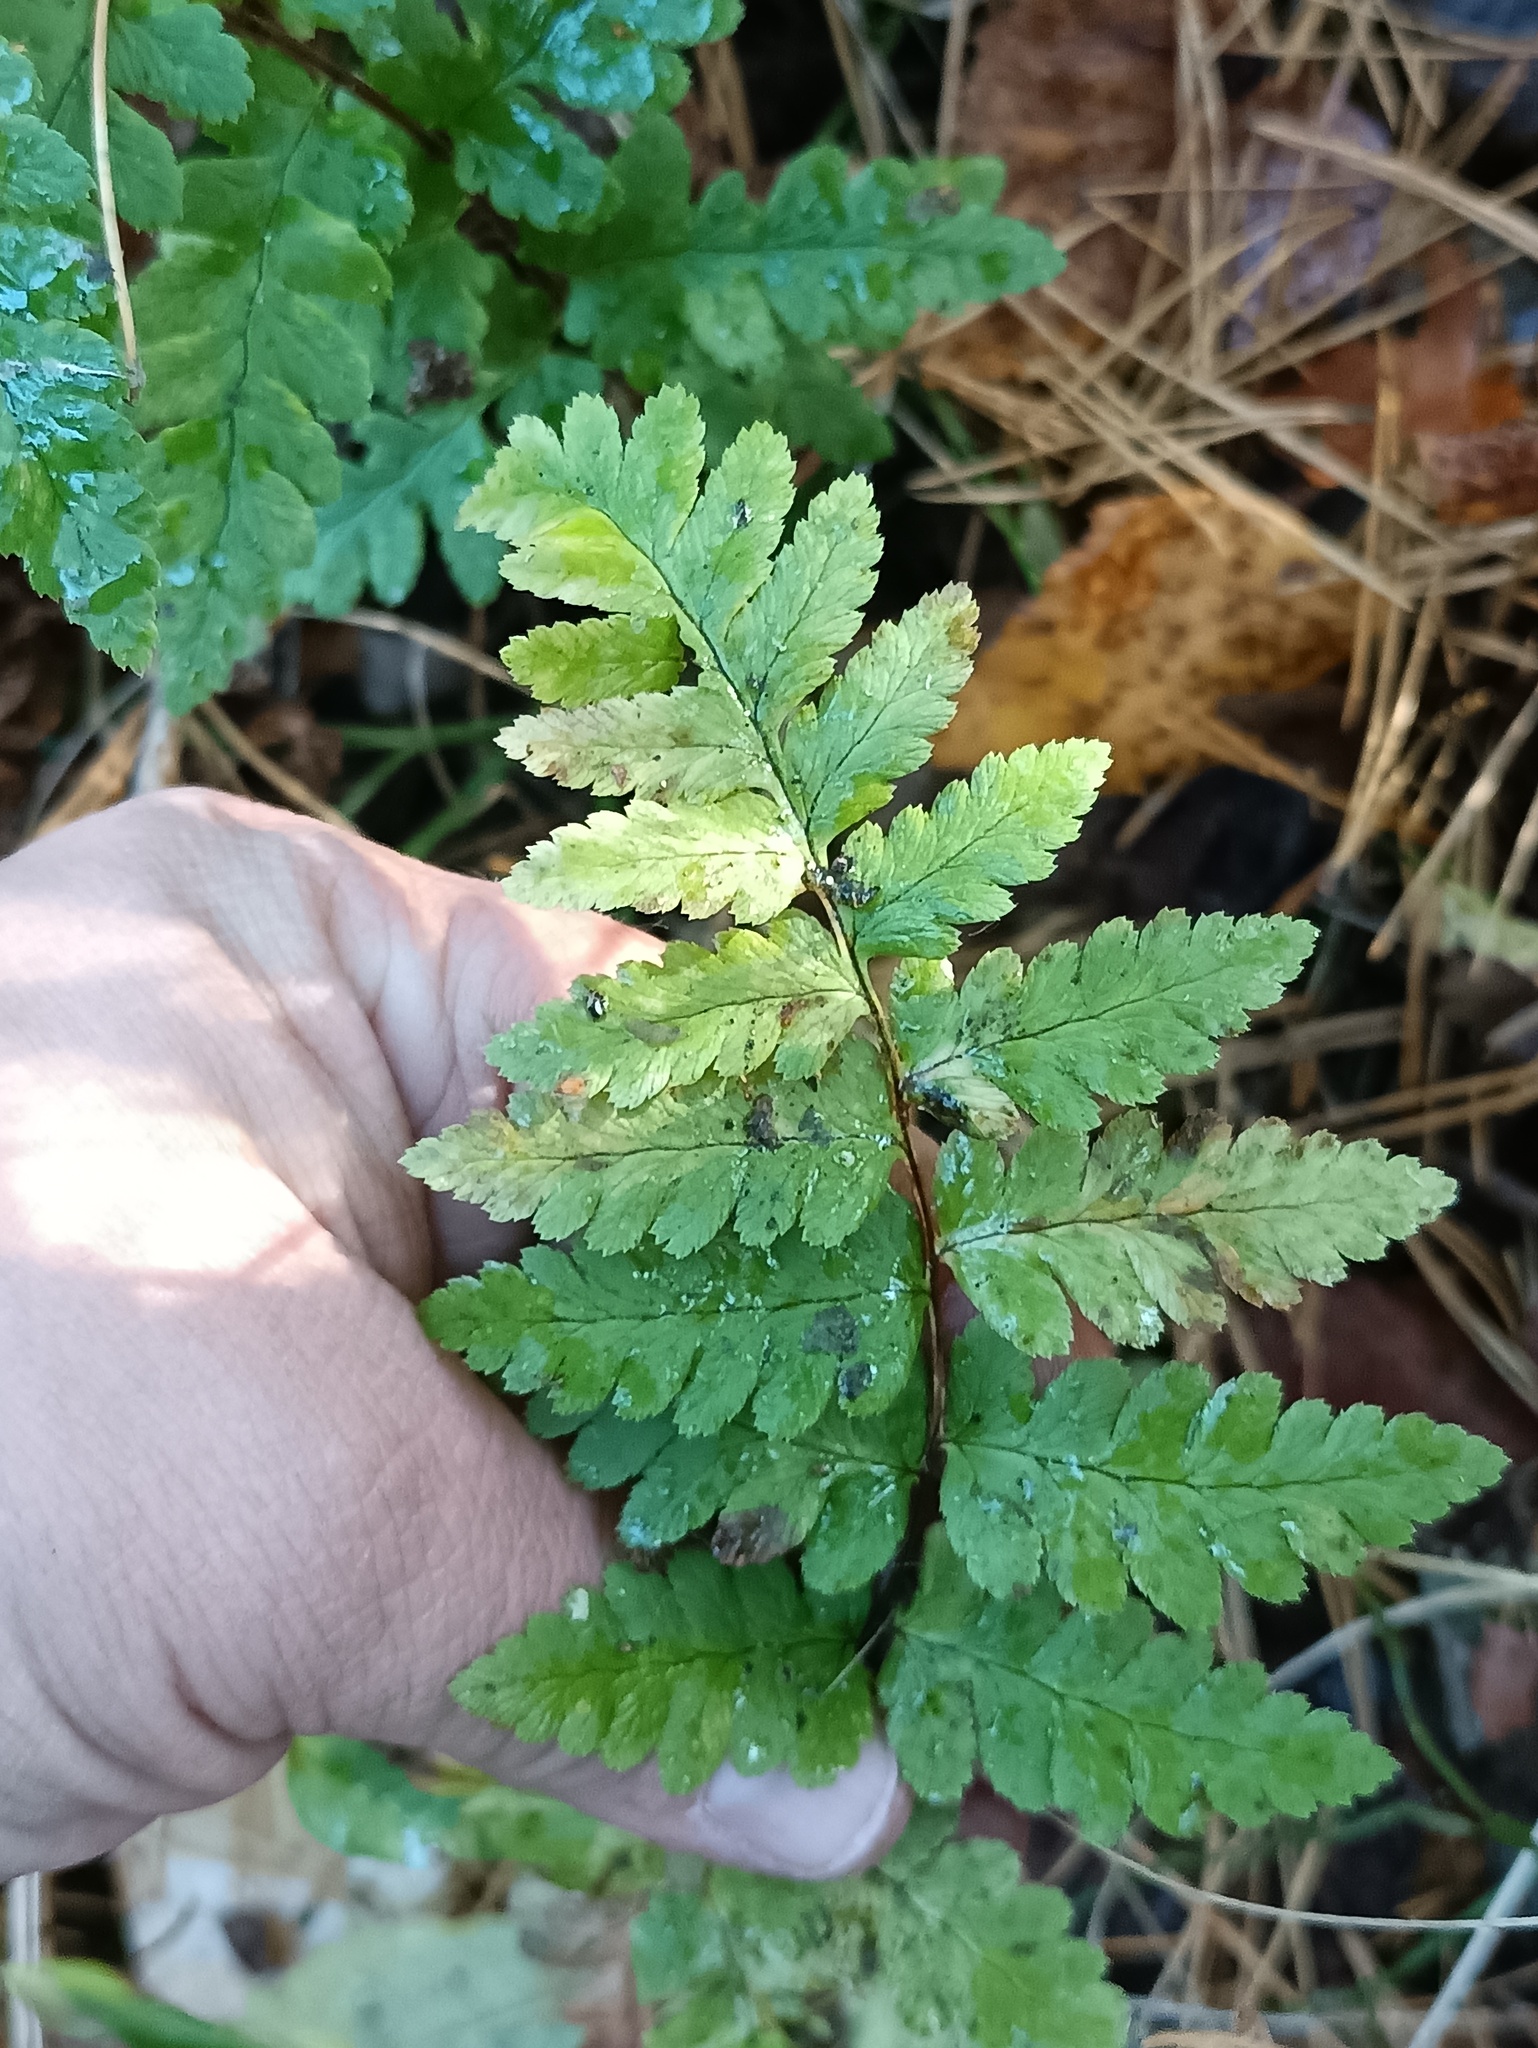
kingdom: Plantae
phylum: Tracheophyta
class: Polypodiopsida
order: Polypodiales
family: Dryopteridaceae
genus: Dryopteris
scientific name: Dryopteris cristata
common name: Crested wood fern
